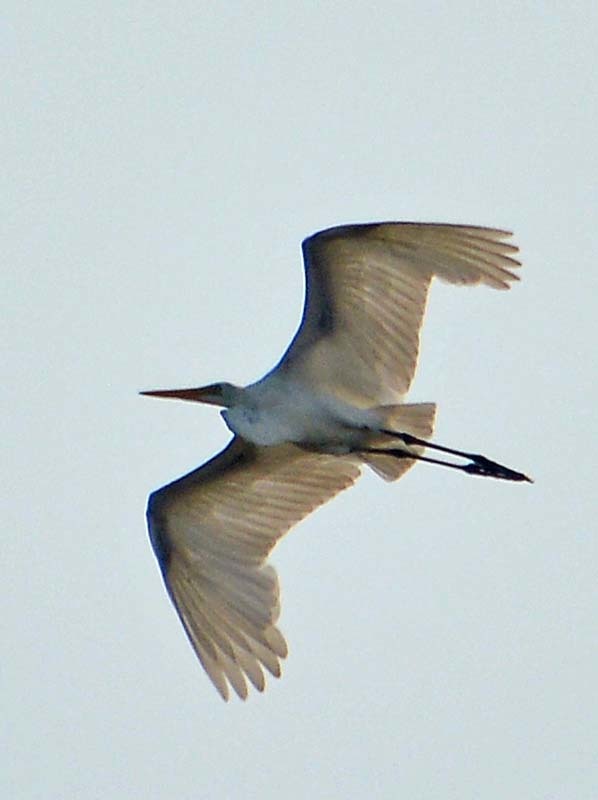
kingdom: Animalia
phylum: Chordata
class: Aves
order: Pelecaniformes
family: Ardeidae
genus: Ardea
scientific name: Ardea alba
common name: Great egret
